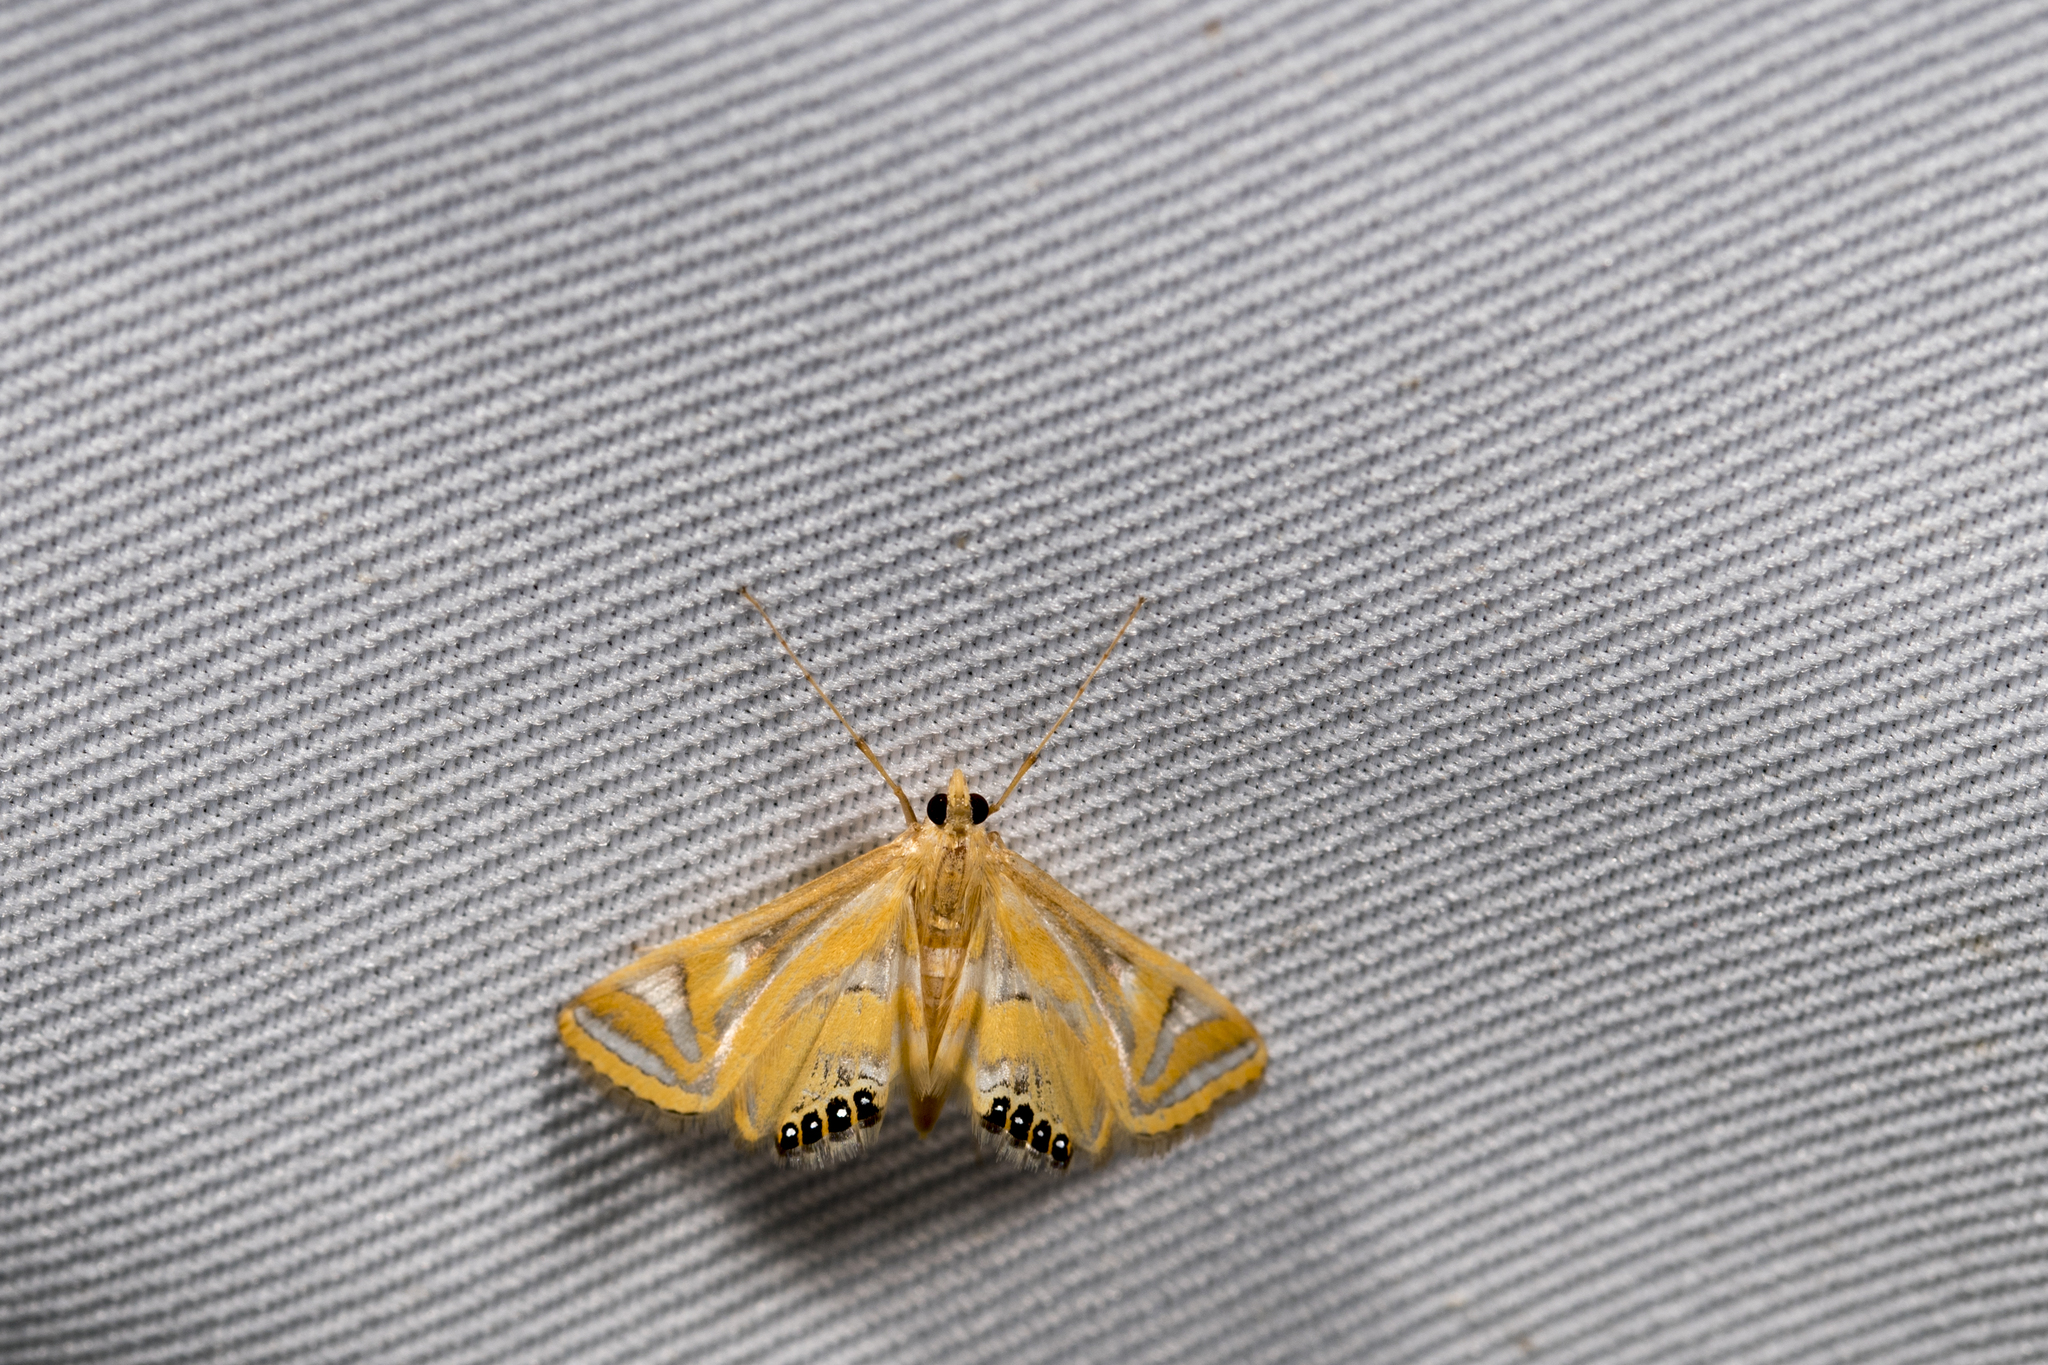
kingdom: Animalia
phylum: Arthropoda
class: Insecta
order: Lepidoptera
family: Crambidae
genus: Eoophyla
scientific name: Eoophyla conjunctalis
